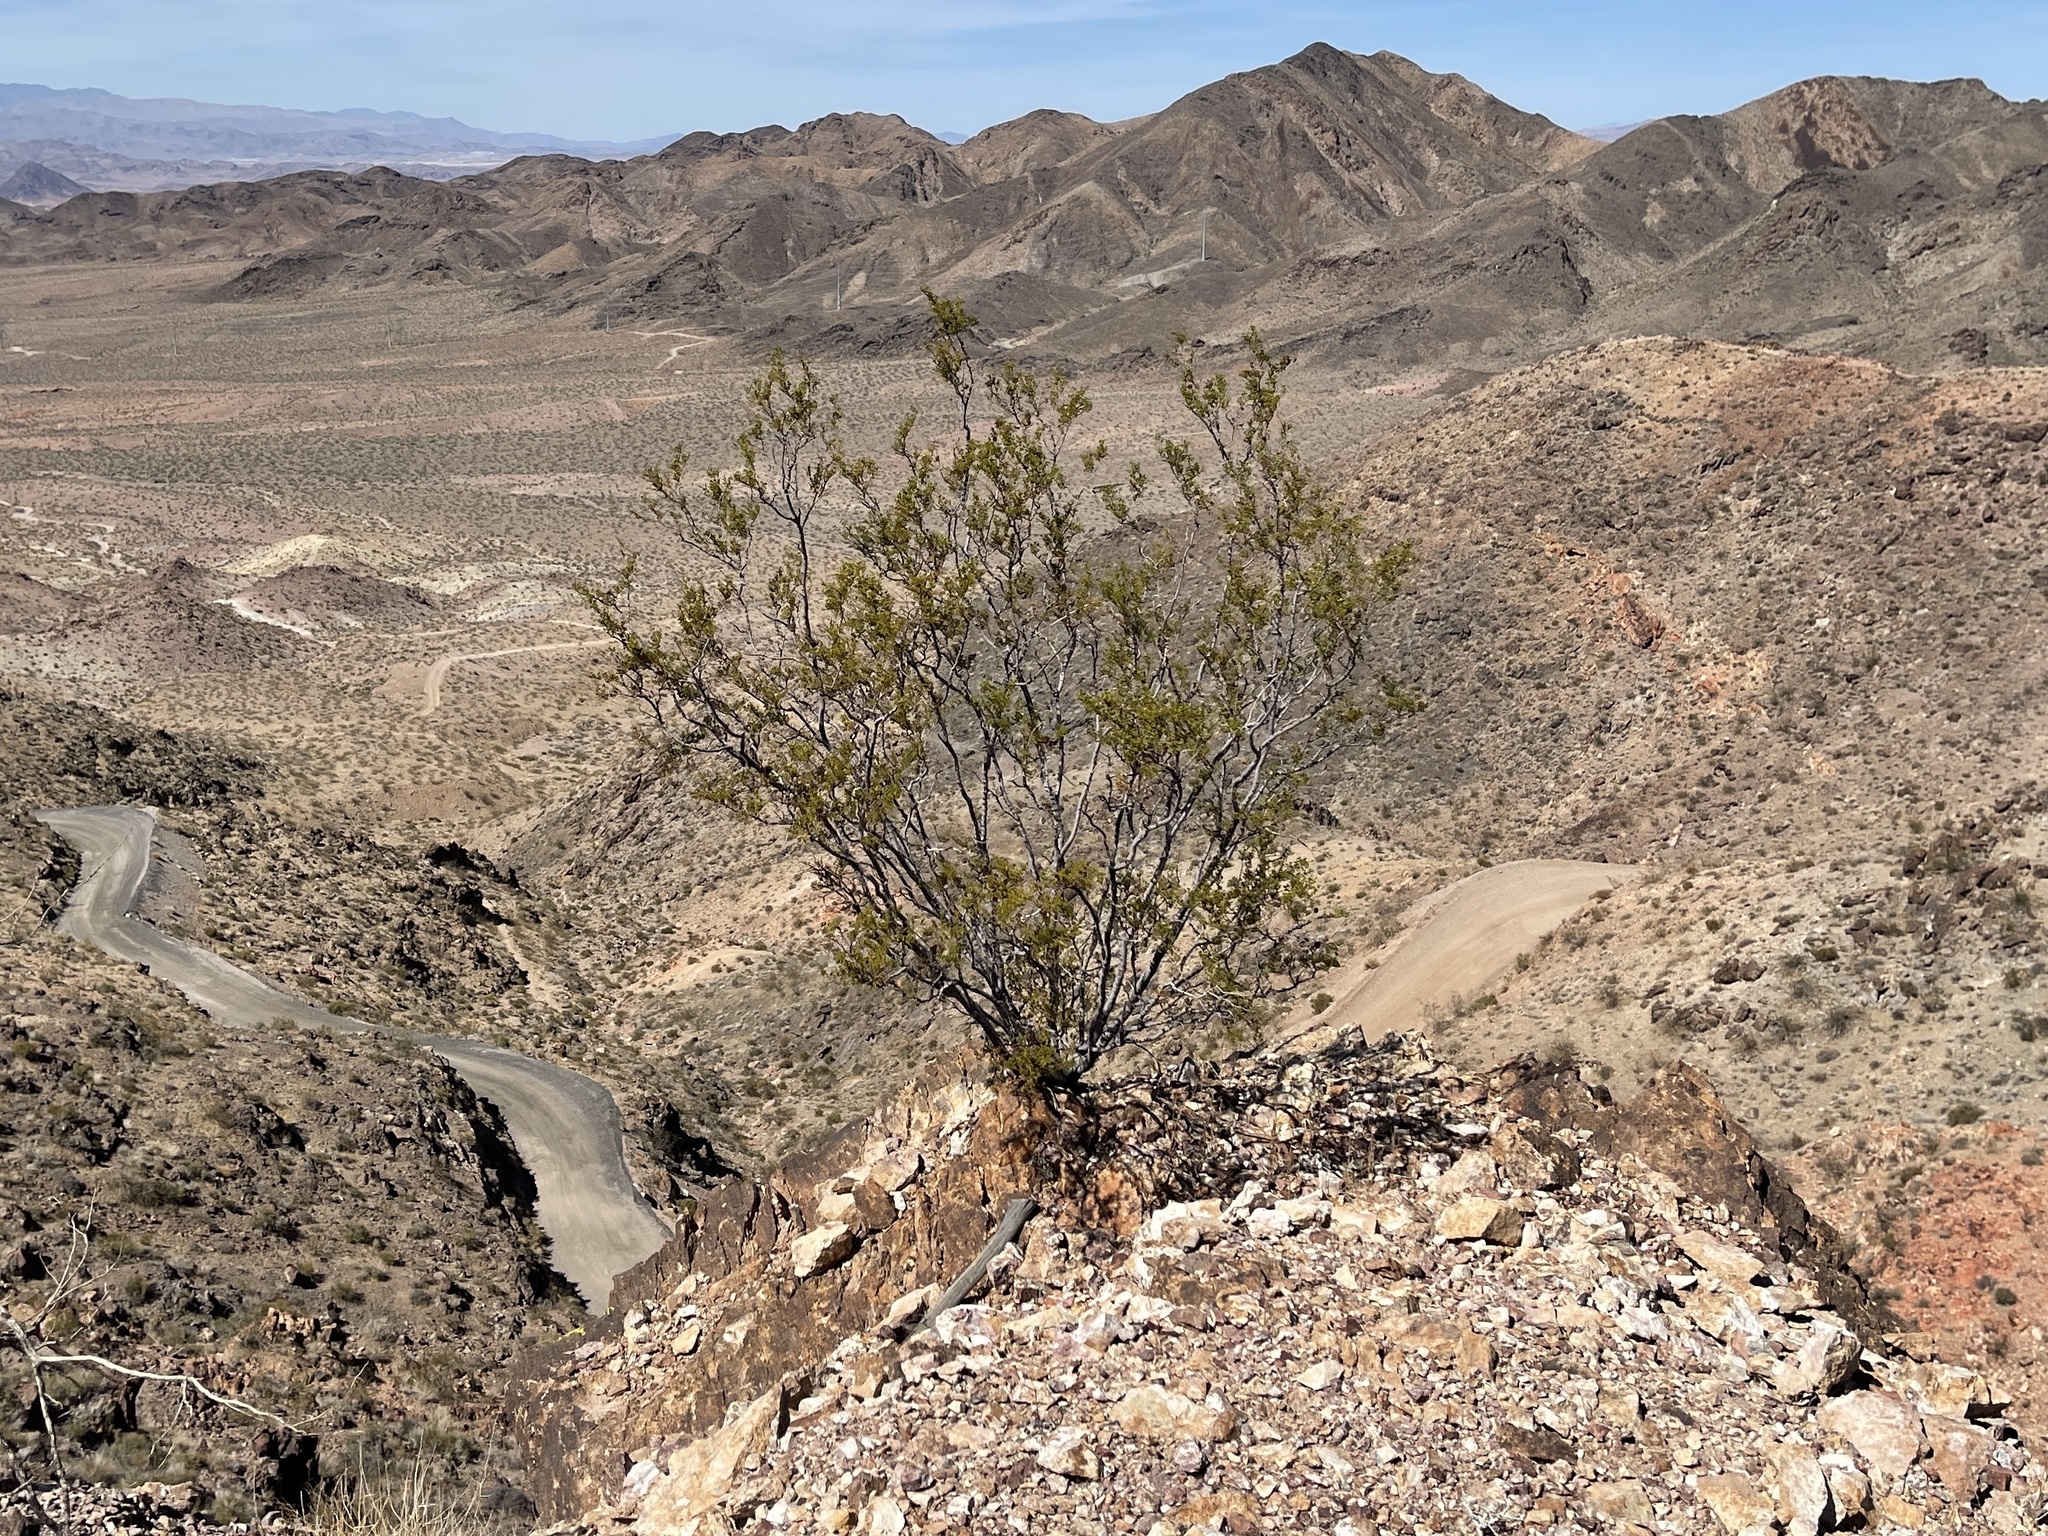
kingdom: Plantae
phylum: Tracheophyta
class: Magnoliopsida
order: Zygophyllales
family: Zygophyllaceae
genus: Larrea
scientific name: Larrea tridentata
